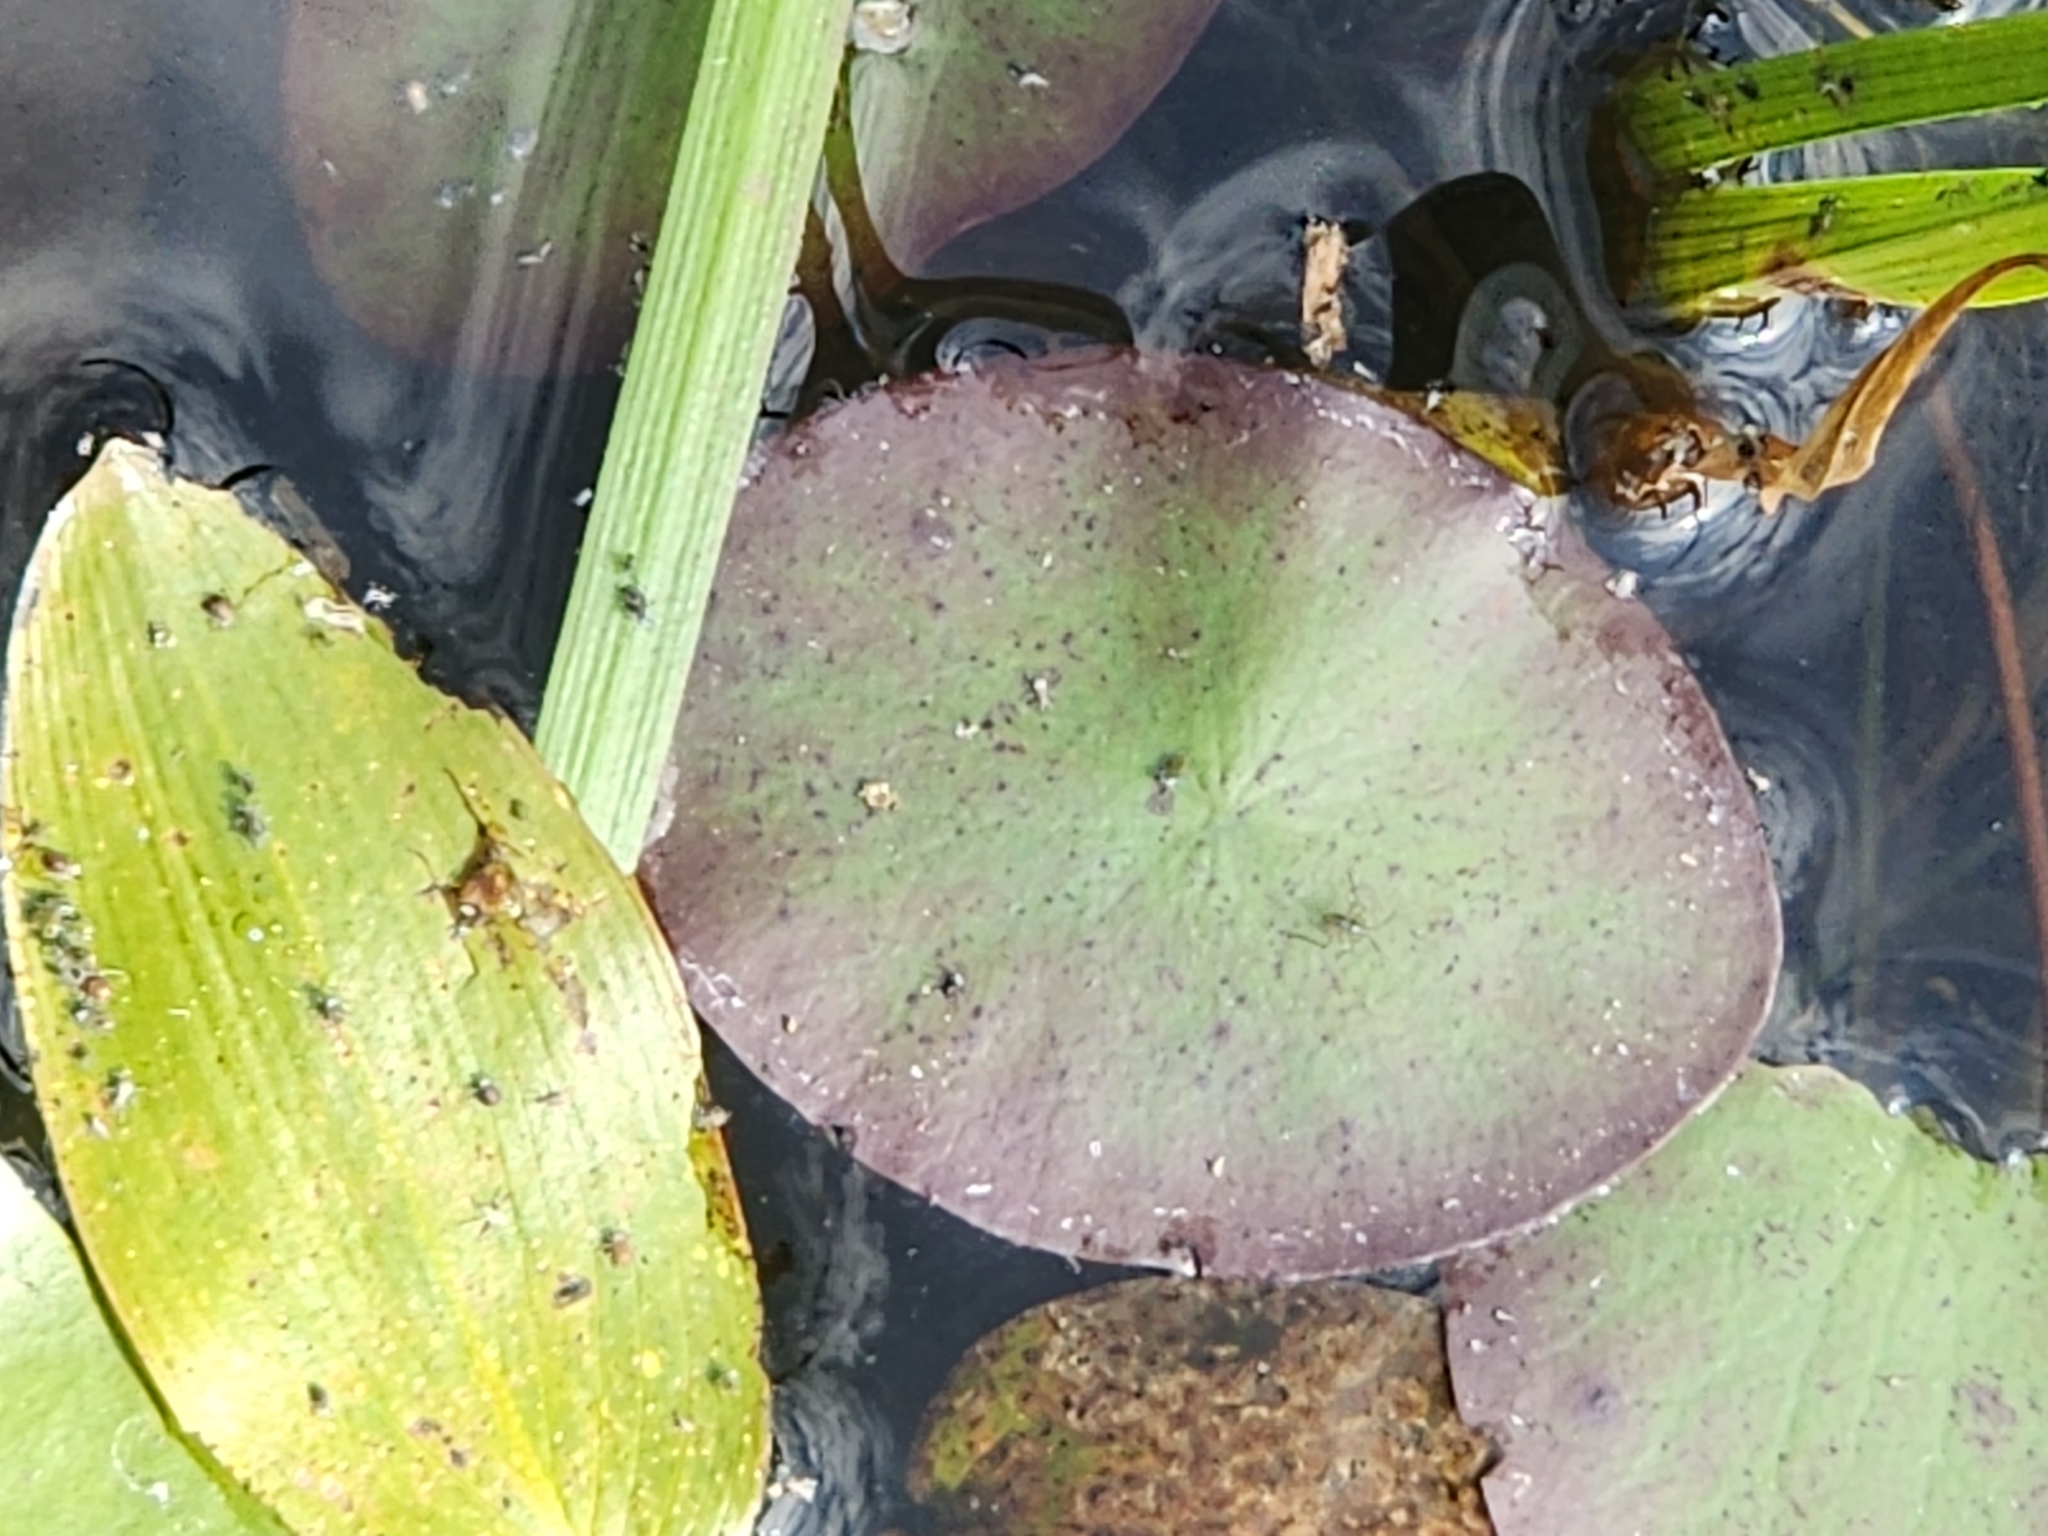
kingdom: Plantae
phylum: Tracheophyta
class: Magnoliopsida
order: Nymphaeales
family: Cabombaceae
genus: Brasenia
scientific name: Brasenia schreberi
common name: Water-shield
